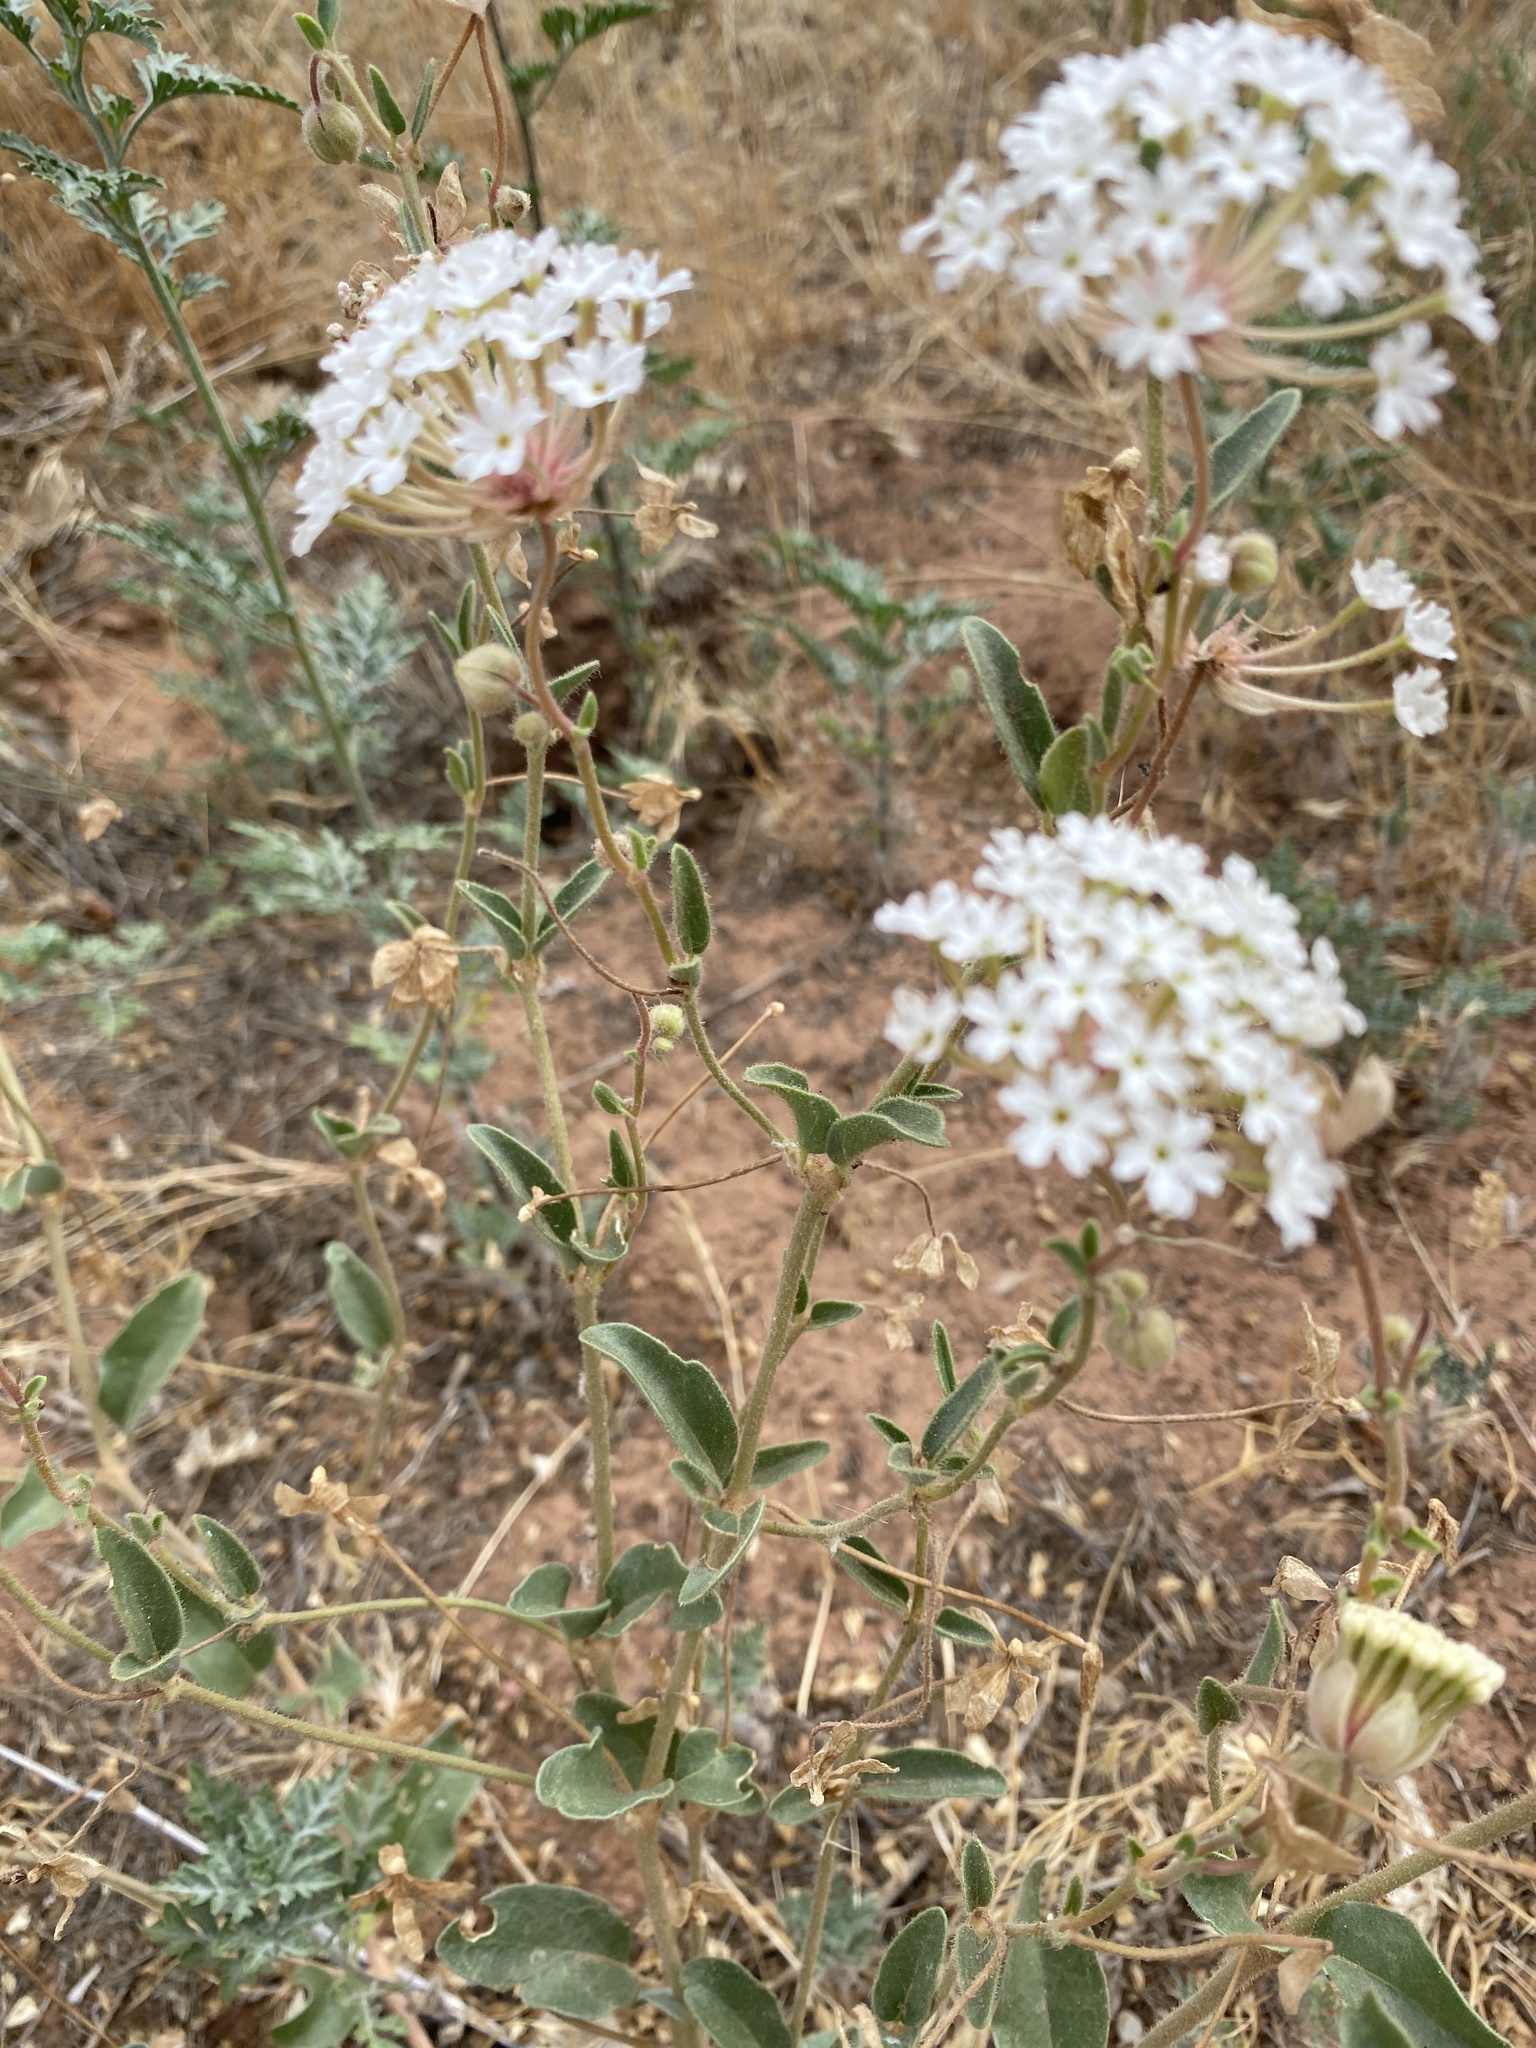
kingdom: Plantae
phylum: Tracheophyta
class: Magnoliopsida
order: Caryophyllales
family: Nyctaginaceae
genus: Abronia
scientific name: Abronia elliptica
